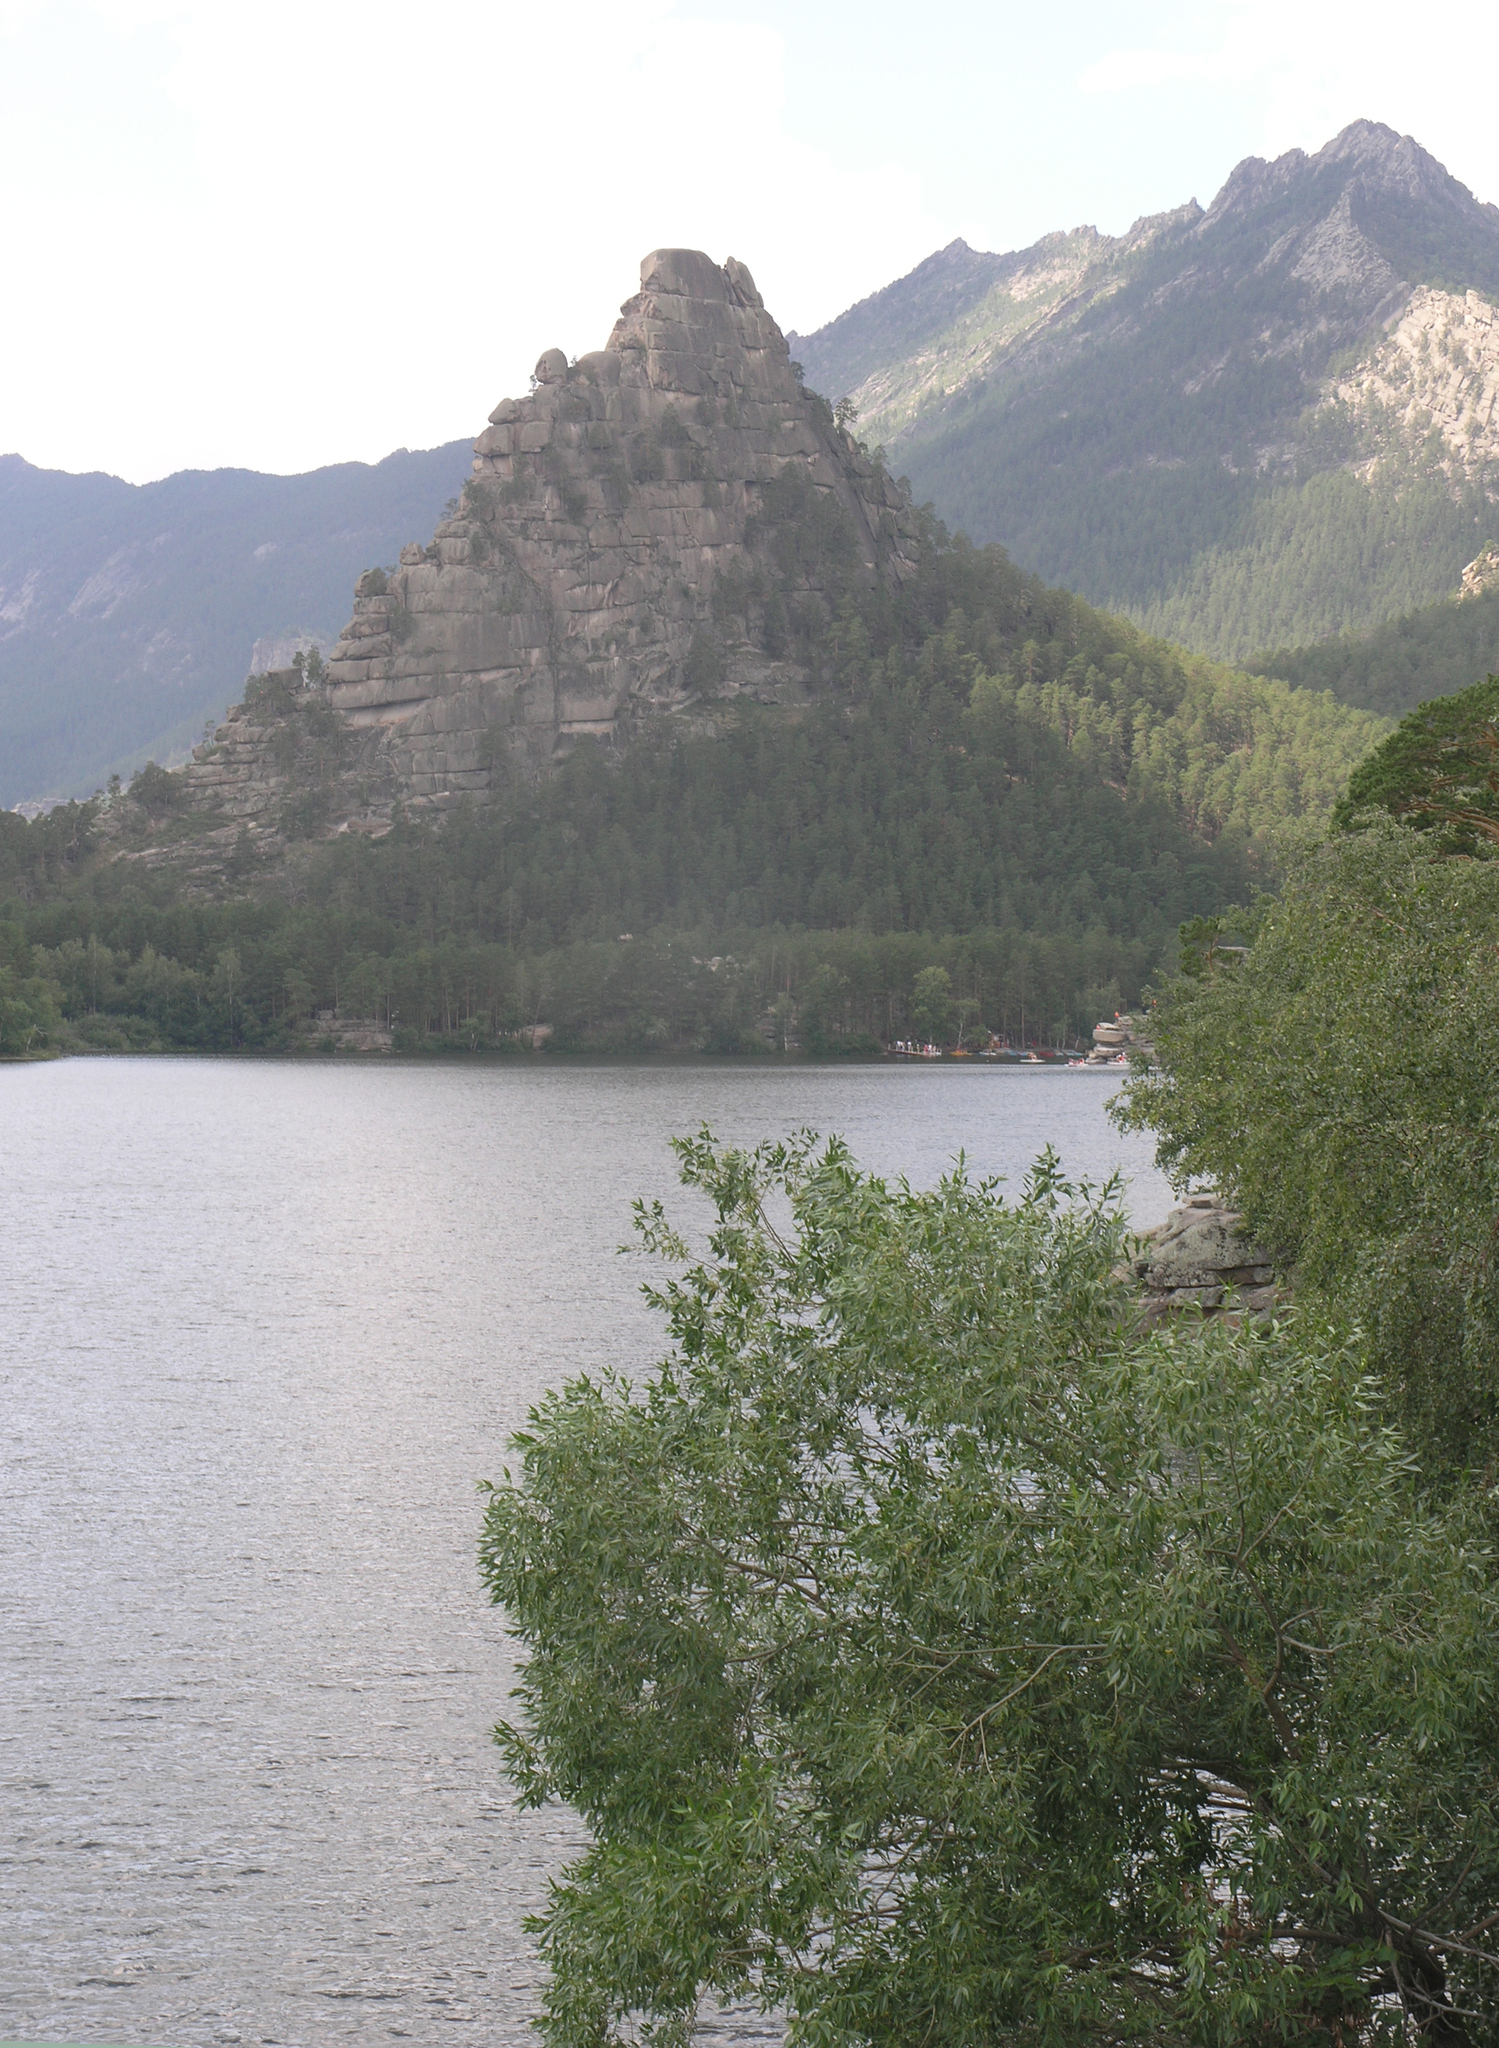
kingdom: Plantae
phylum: Tracheophyta
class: Magnoliopsida
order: Malpighiales
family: Salicaceae
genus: Salix
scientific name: Salix
